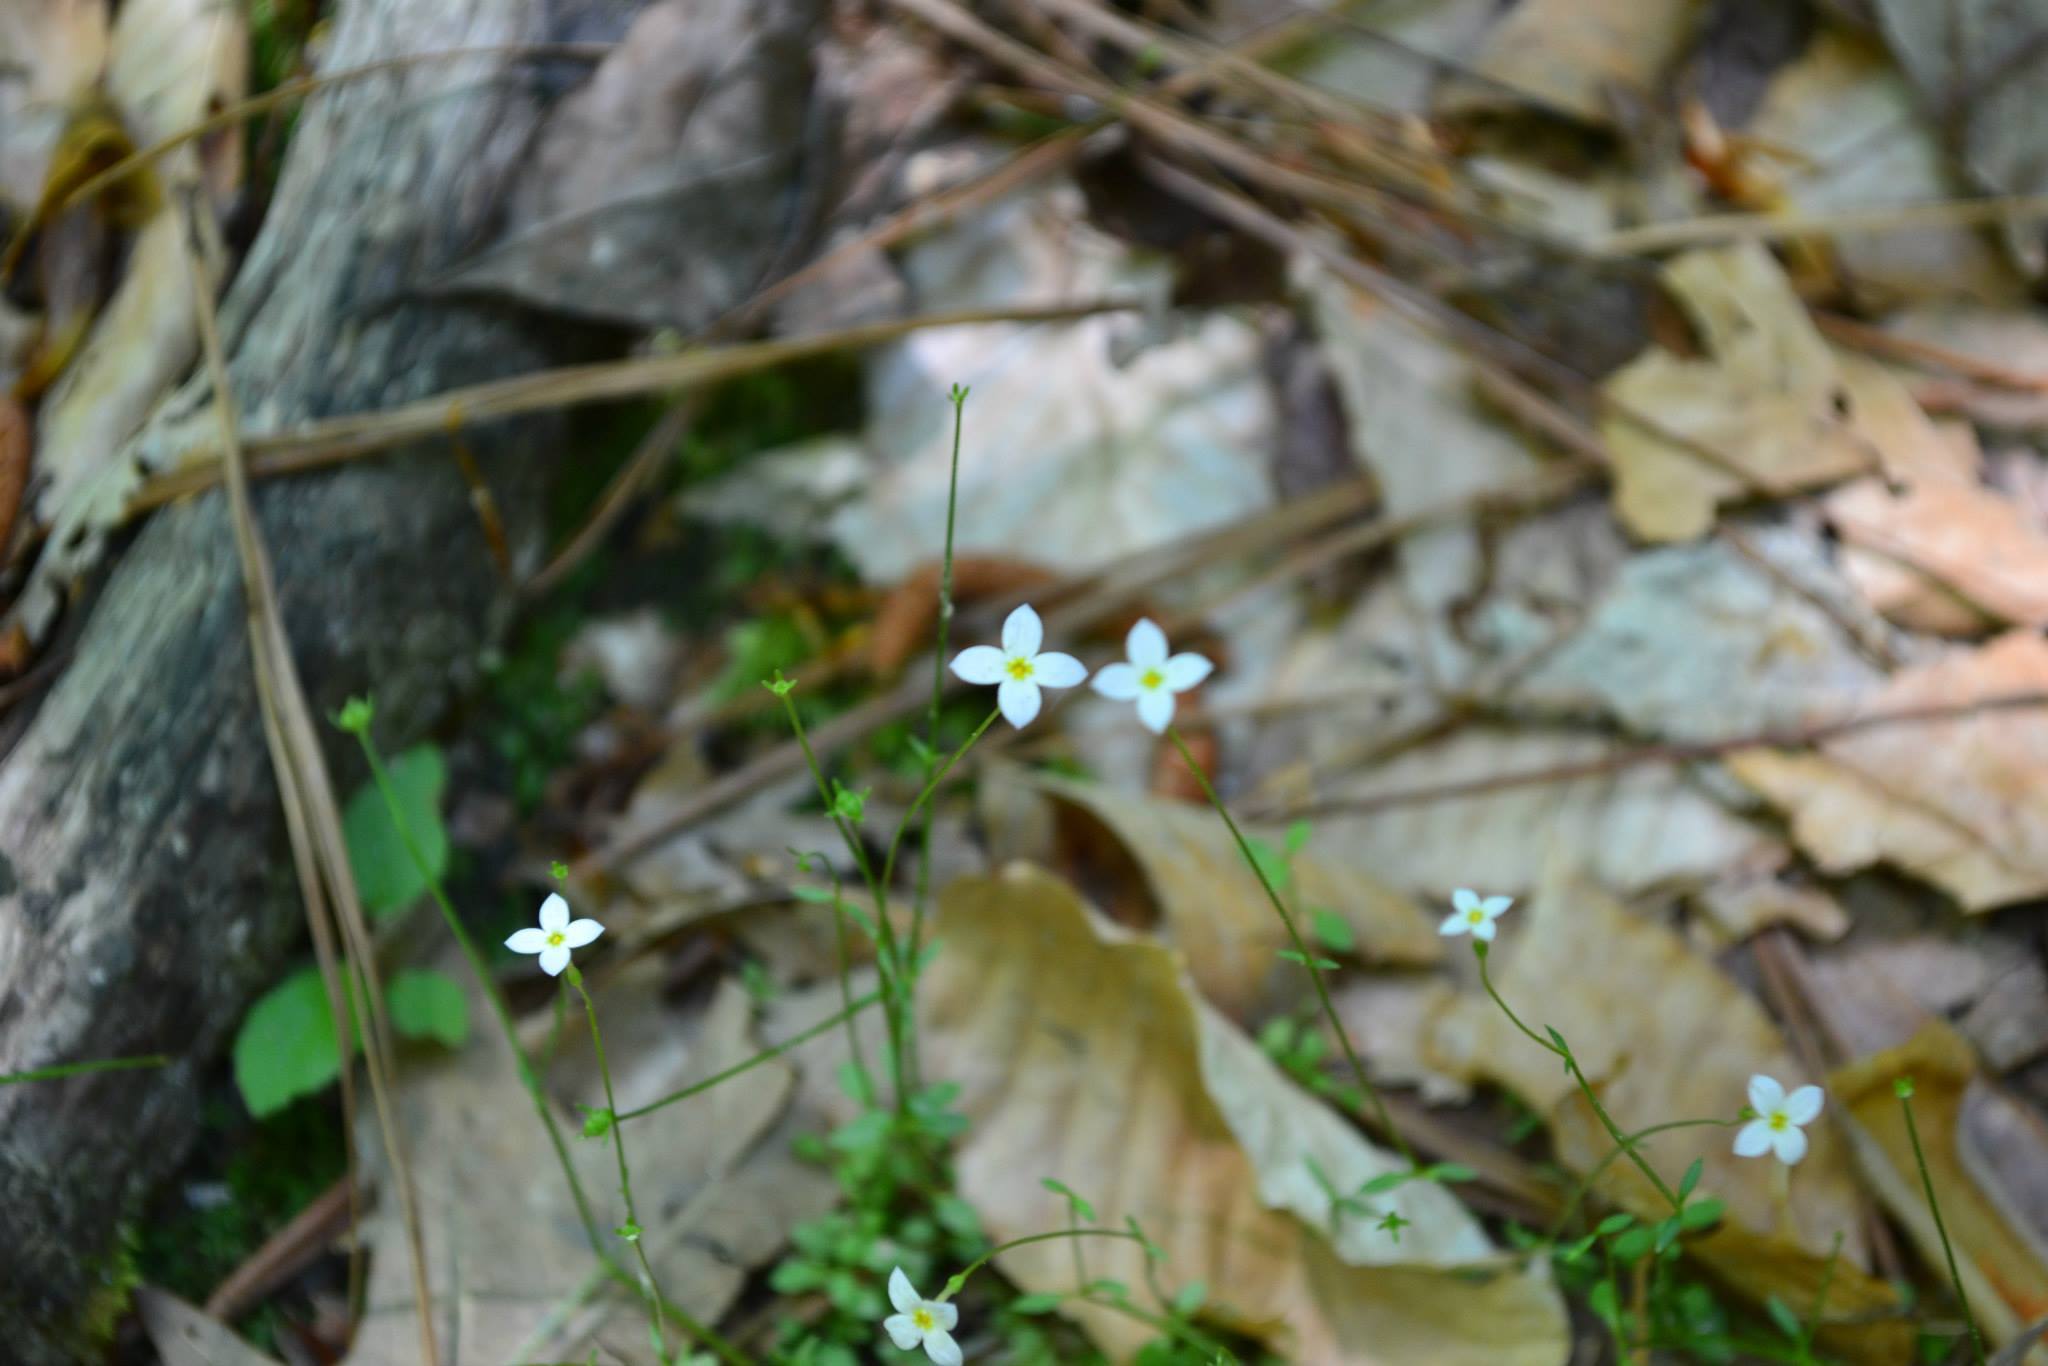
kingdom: Plantae
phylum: Tracheophyta
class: Magnoliopsida
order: Gentianales
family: Rubiaceae
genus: Houstonia
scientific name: Houstonia caerulea
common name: Bluets
